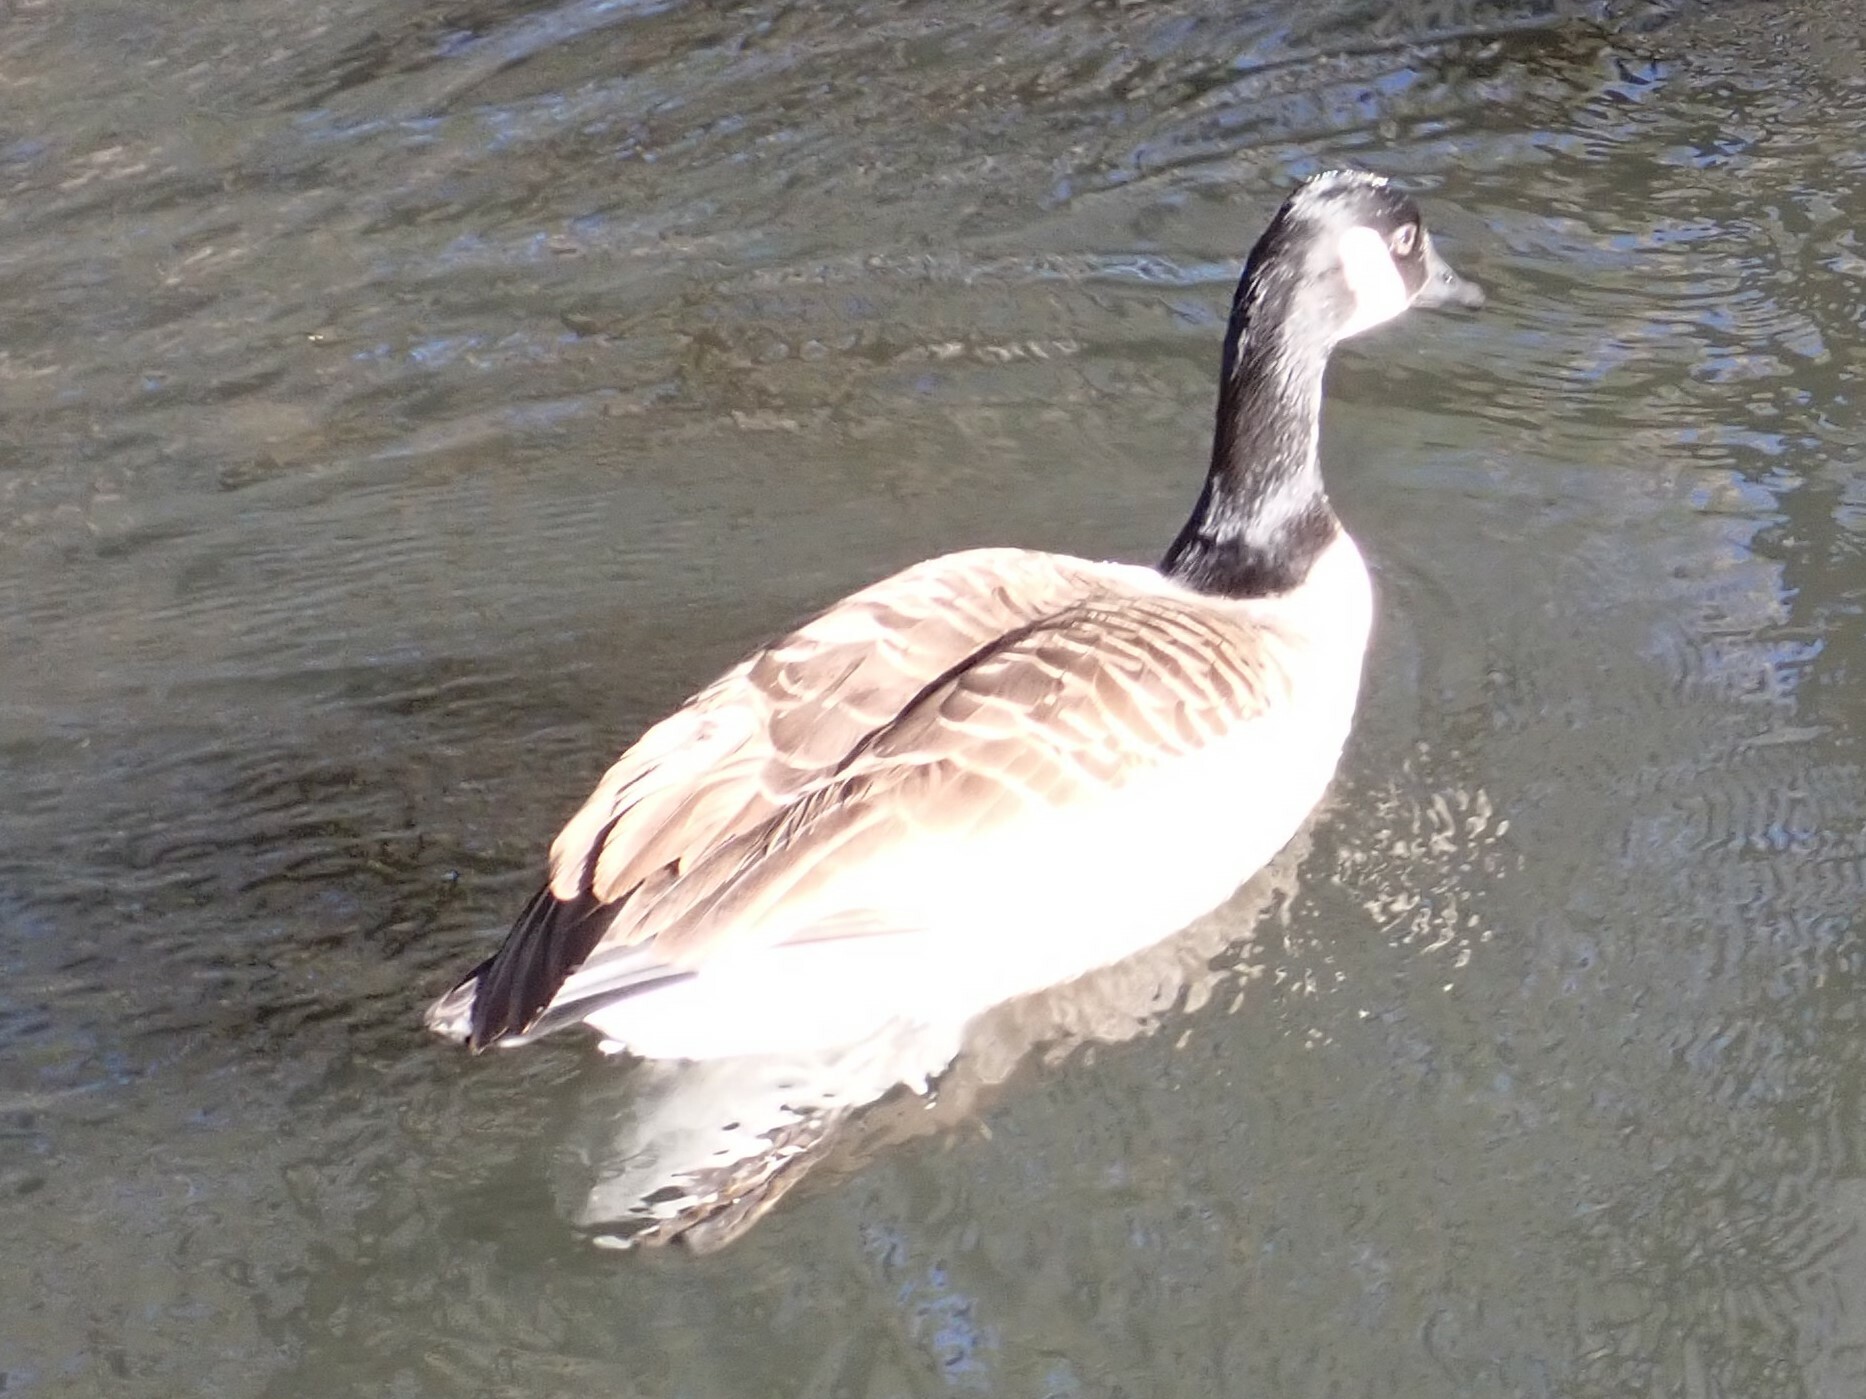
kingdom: Animalia
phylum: Chordata
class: Aves
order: Anseriformes
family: Anatidae
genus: Branta
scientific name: Branta canadensis
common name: Canada goose
